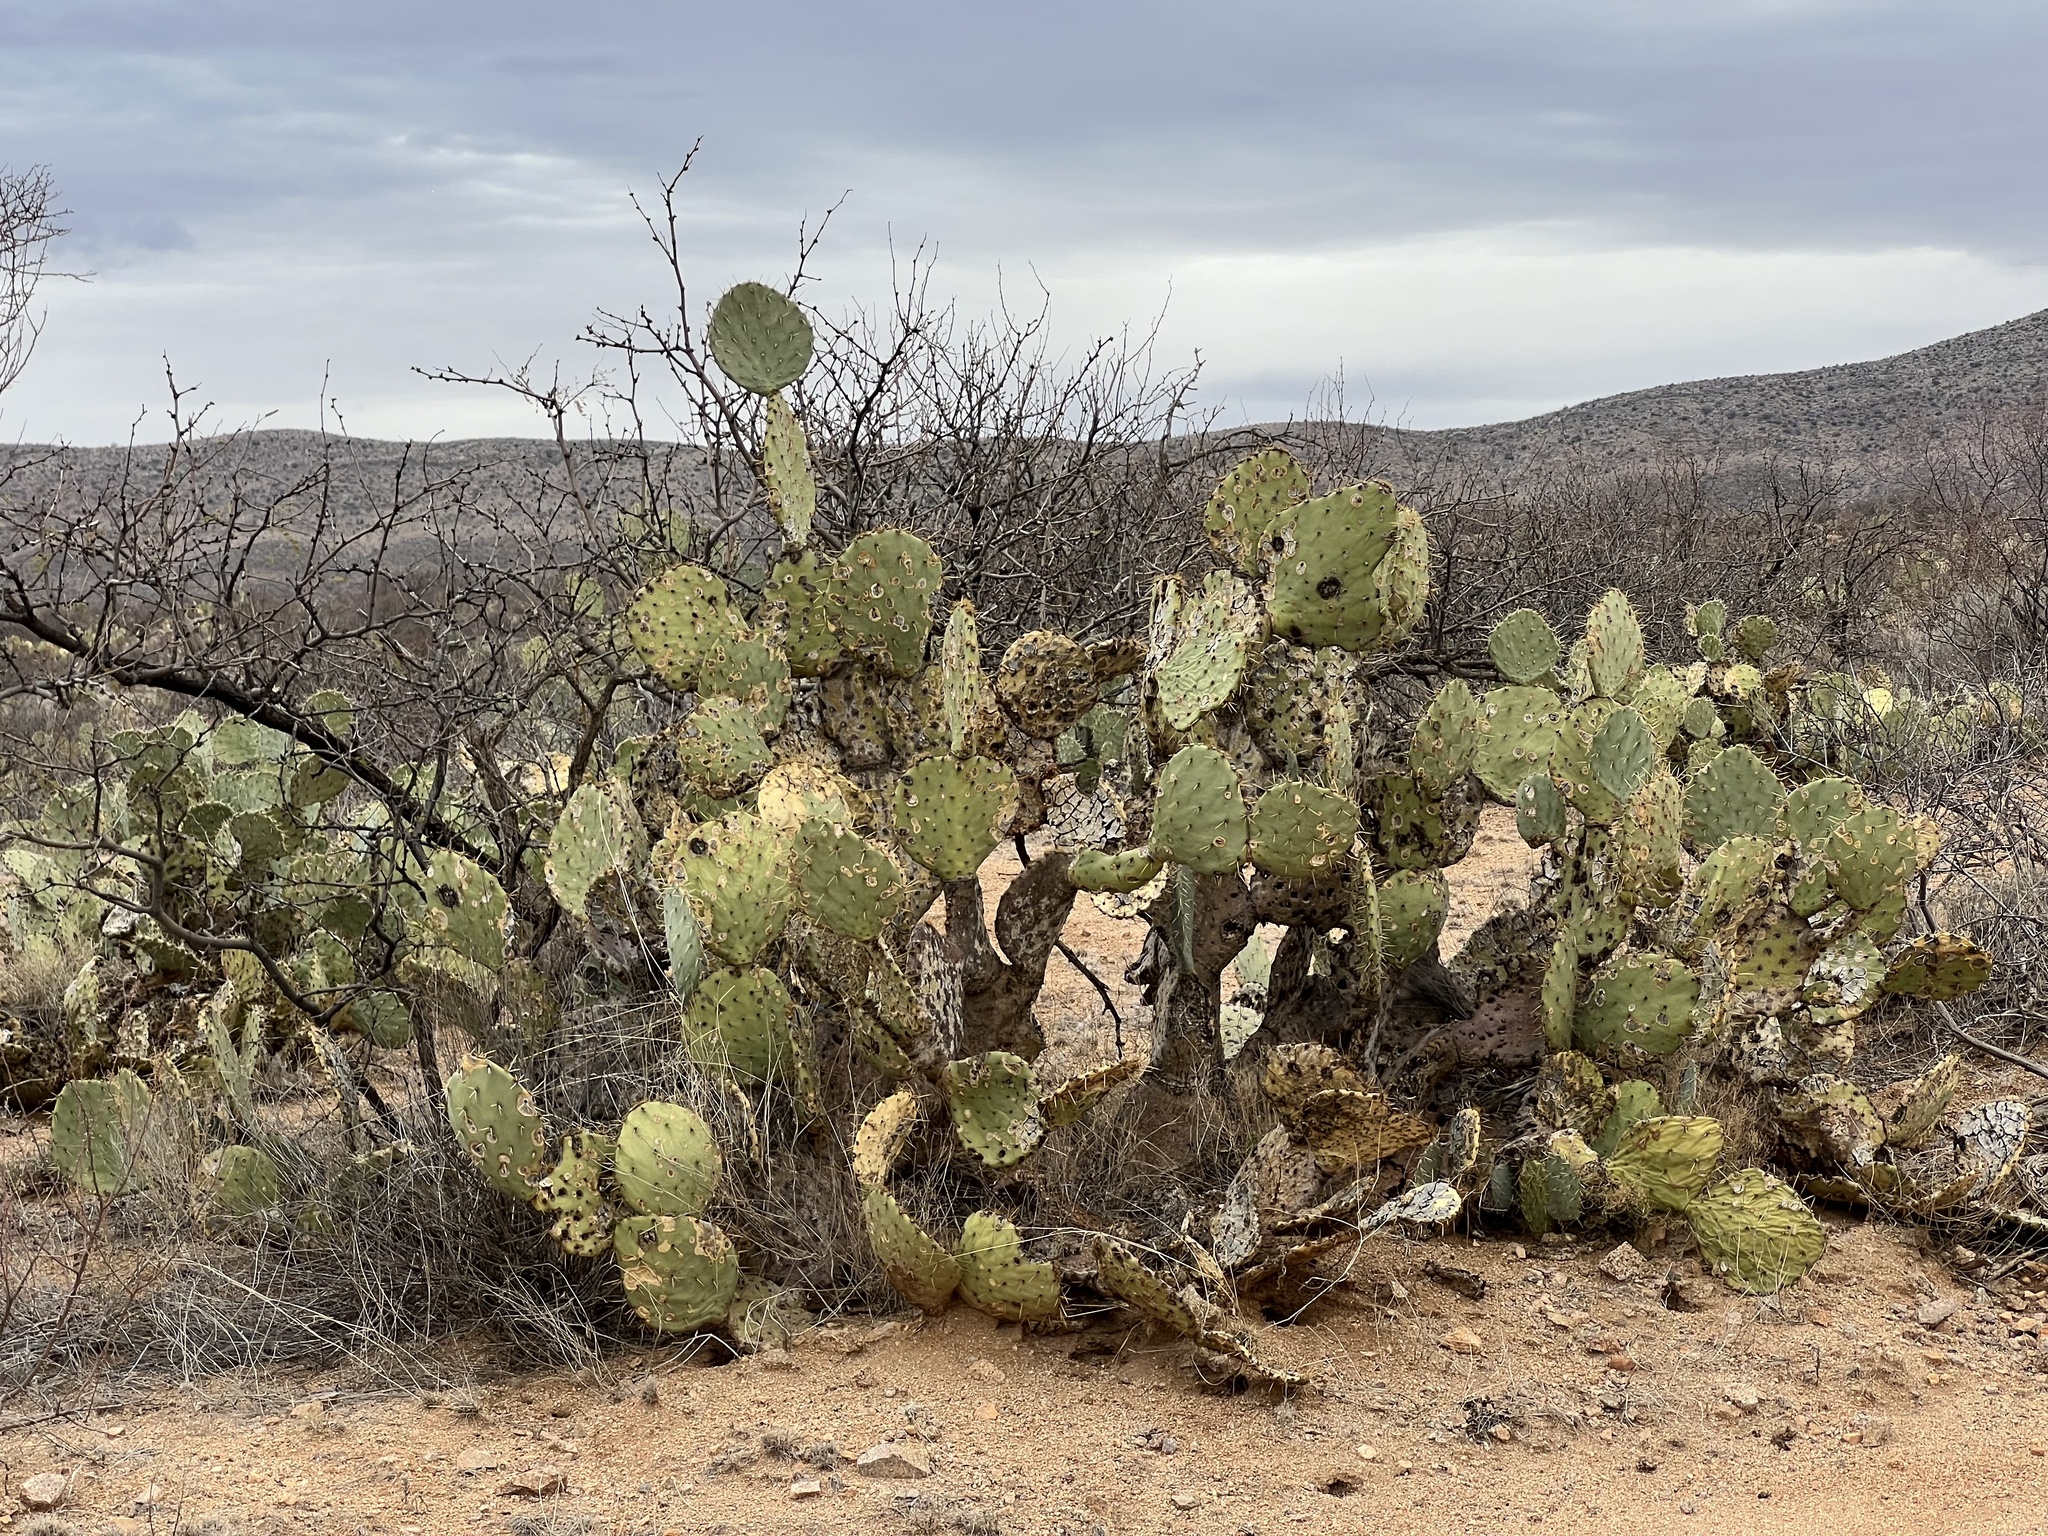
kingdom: Plantae
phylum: Tracheophyta
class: Magnoliopsida
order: Caryophyllales
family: Cactaceae
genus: Opuntia
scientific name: Opuntia engelmannii
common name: Cactus-apple
